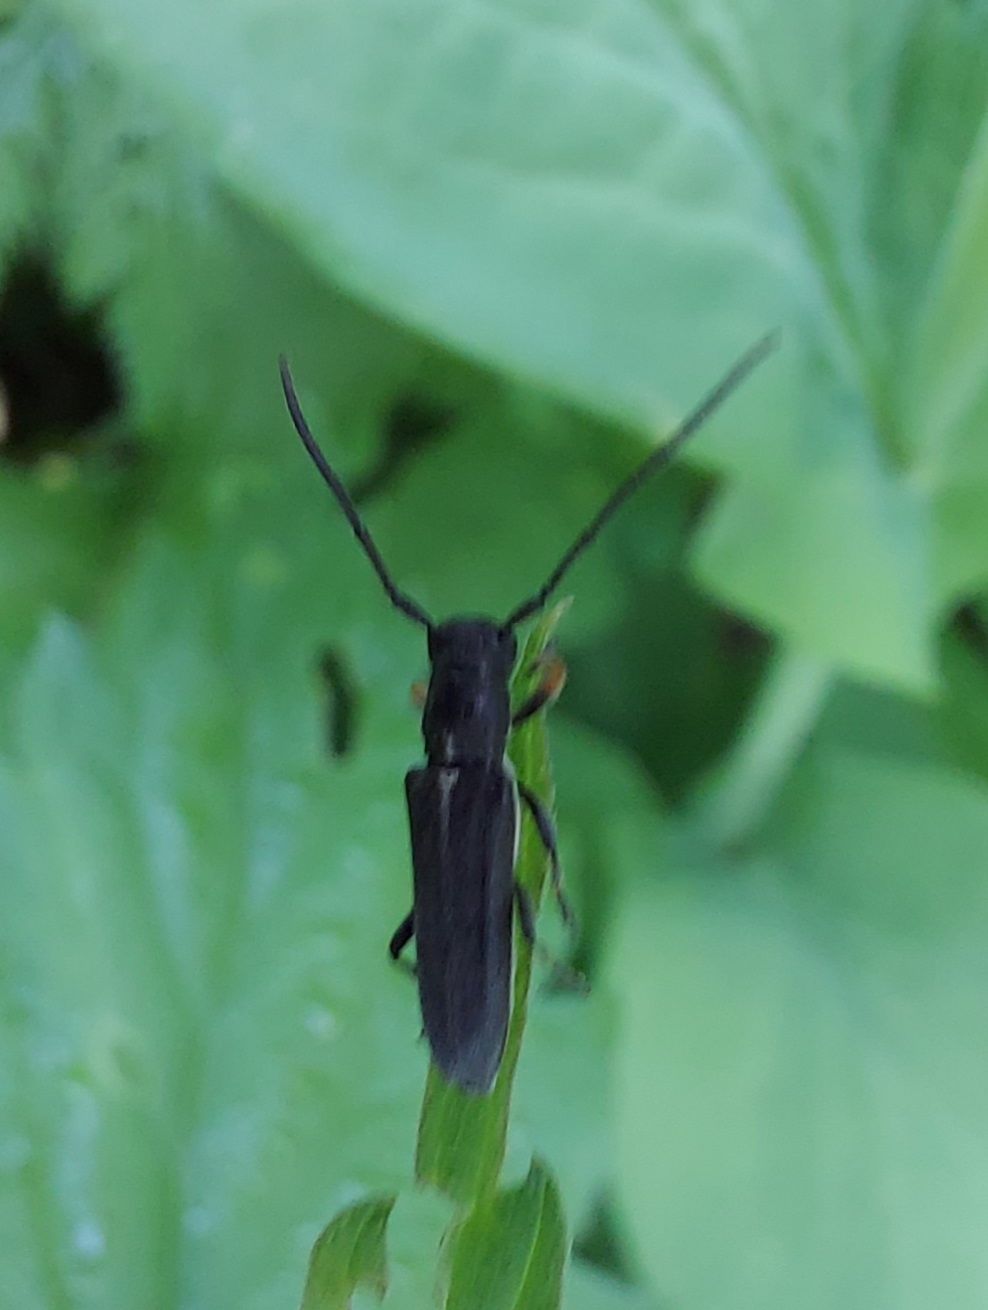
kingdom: Animalia
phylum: Arthropoda
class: Insecta
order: Coleoptera
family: Cerambycidae
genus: Phytoecia
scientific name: Phytoecia cylindrica
